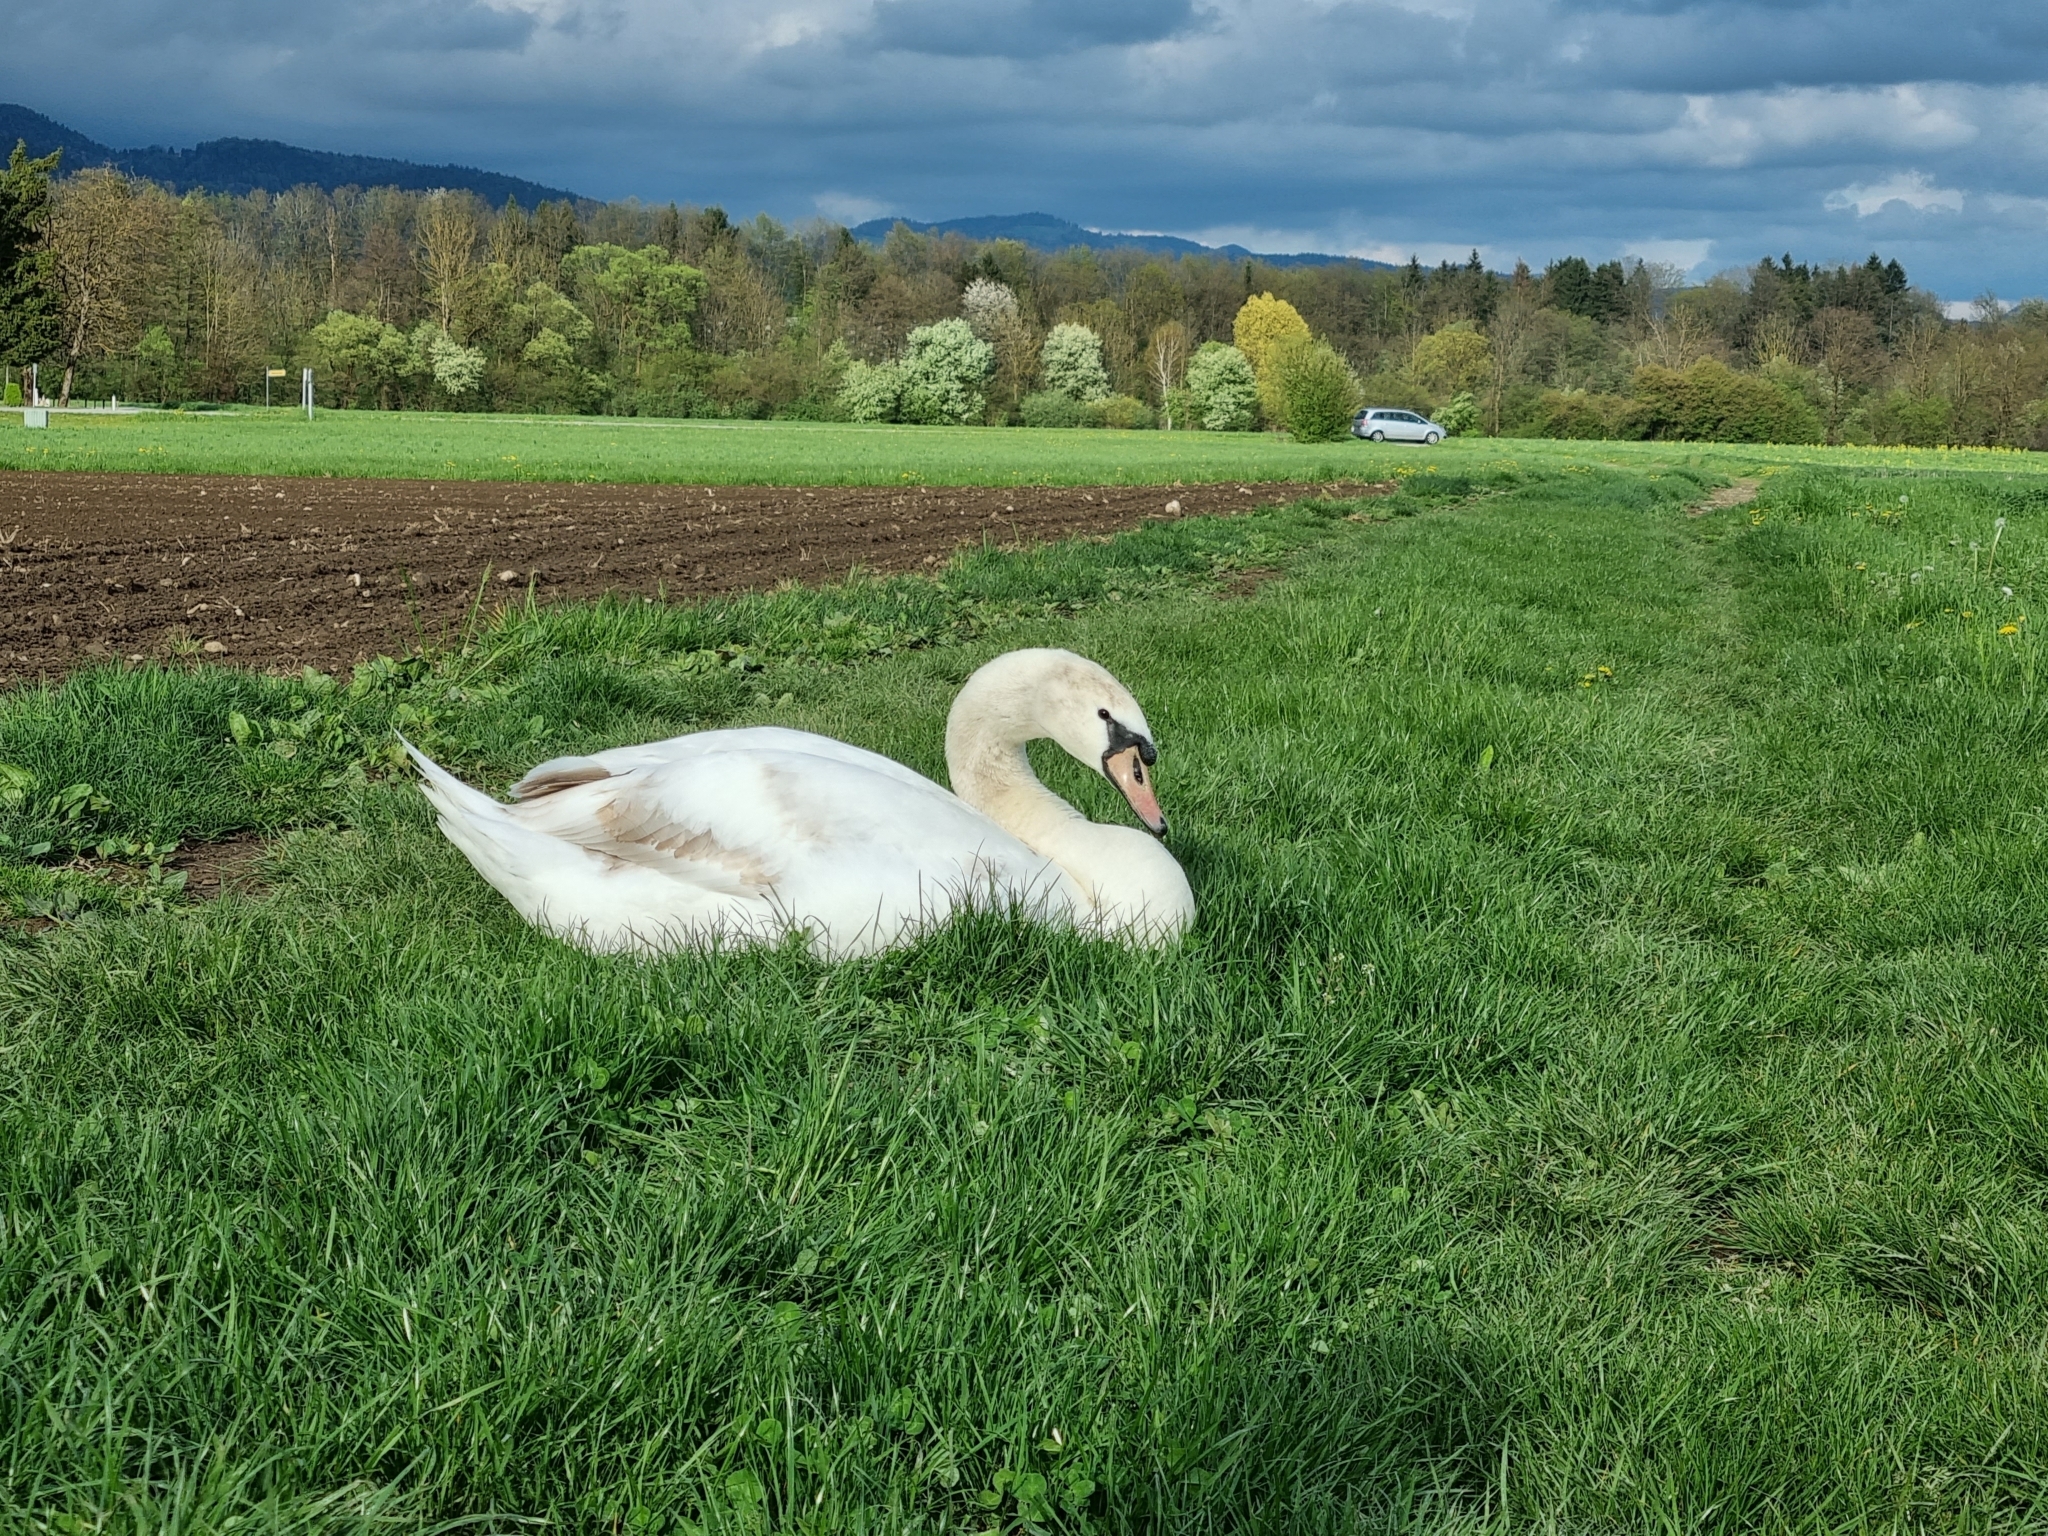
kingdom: Animalia
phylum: Chordata
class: Aves
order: Anseriformes
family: Anatidae
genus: Cygnus
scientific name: Cygnus olor
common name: Mute swan
